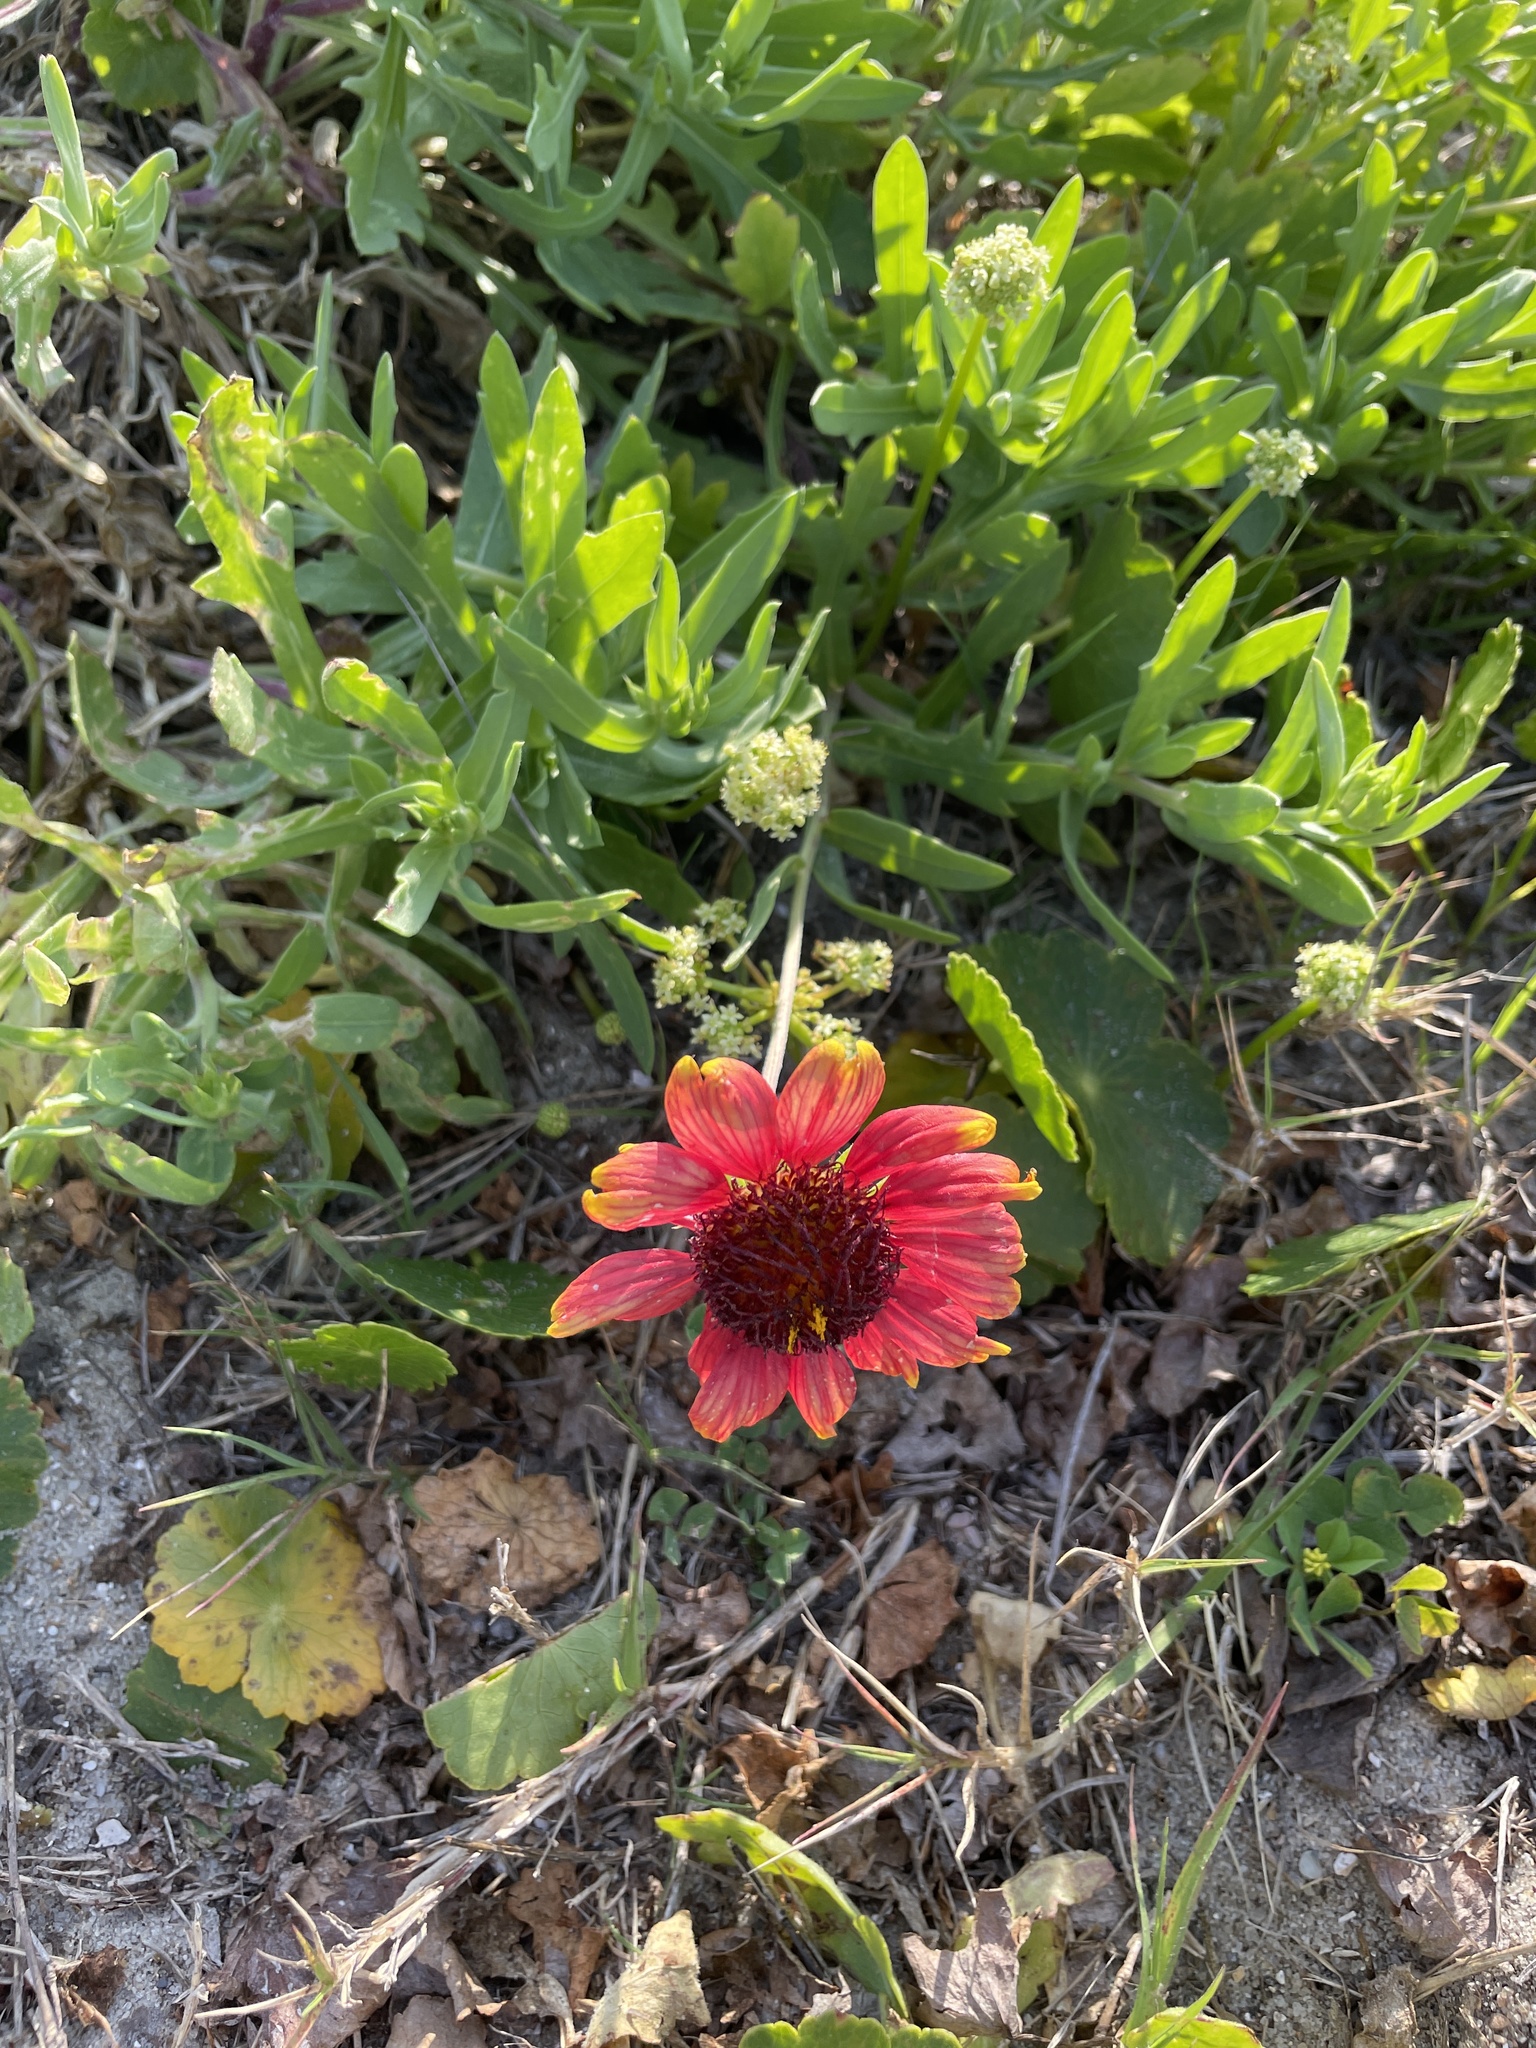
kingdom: Plantae
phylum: Tracheophyta
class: Magnoliopsida
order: Asterales
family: Asteraceae
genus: Gaillardia
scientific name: Gaillardia pulchella
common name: Firewheel
